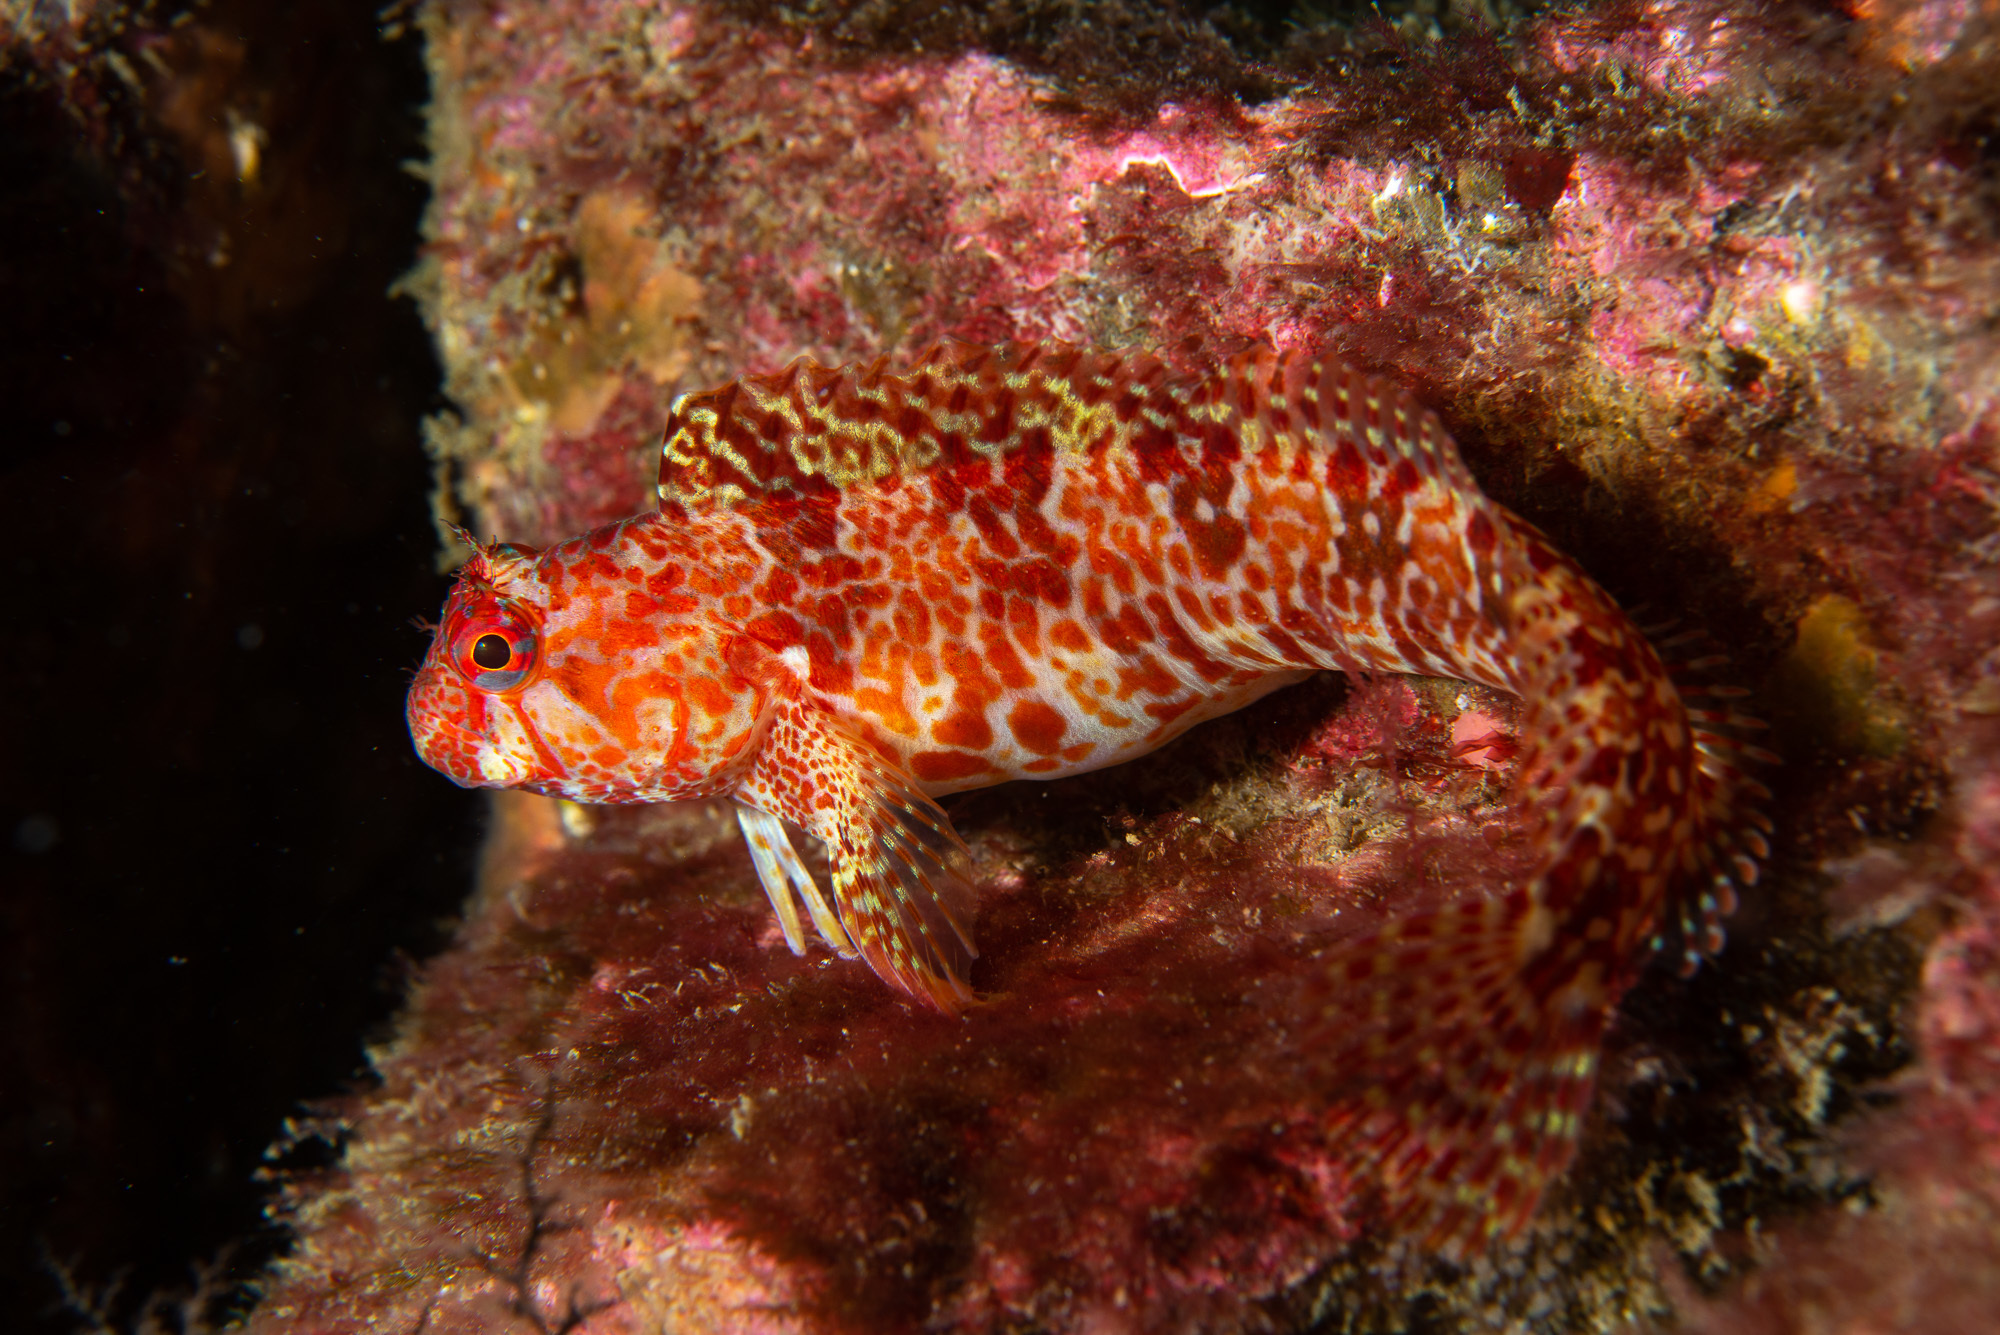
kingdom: Animalia
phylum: Chordata
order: Perciformes
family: Blenniidae
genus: Parablennius
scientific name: Parablennius ruber
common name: Portuguese blenny
